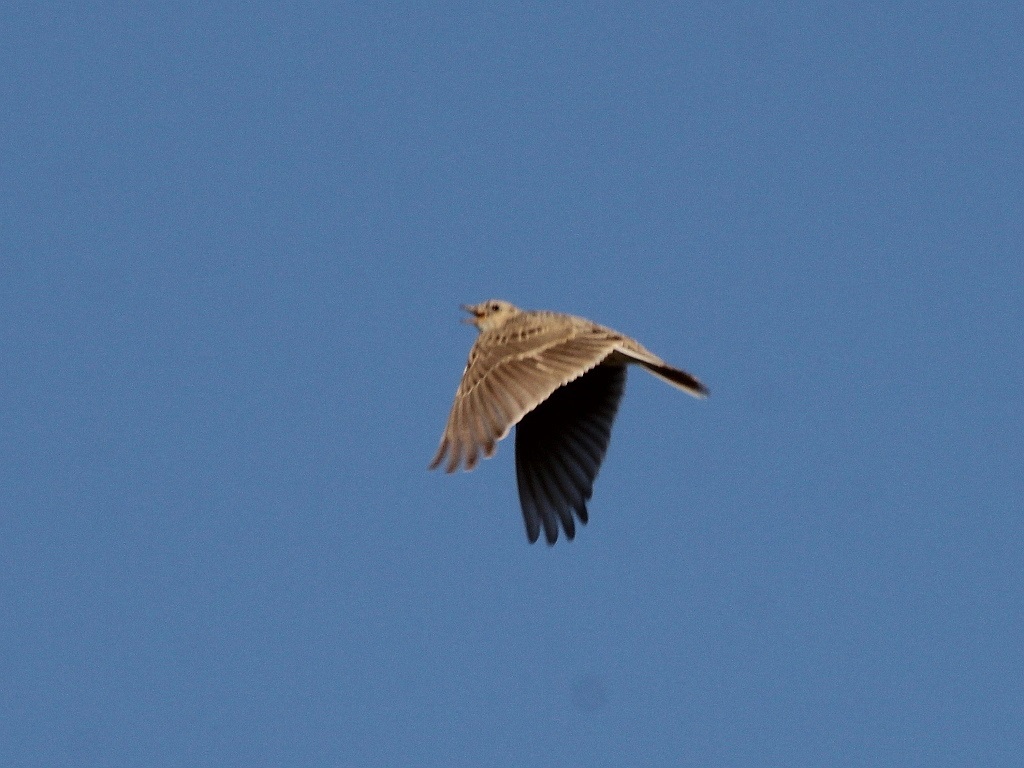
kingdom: Animalia
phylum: Chordata
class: Aves
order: Passeriformes
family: Alaudidae
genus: Alauda
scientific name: Alauda arvensis
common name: Eurasian skylark
